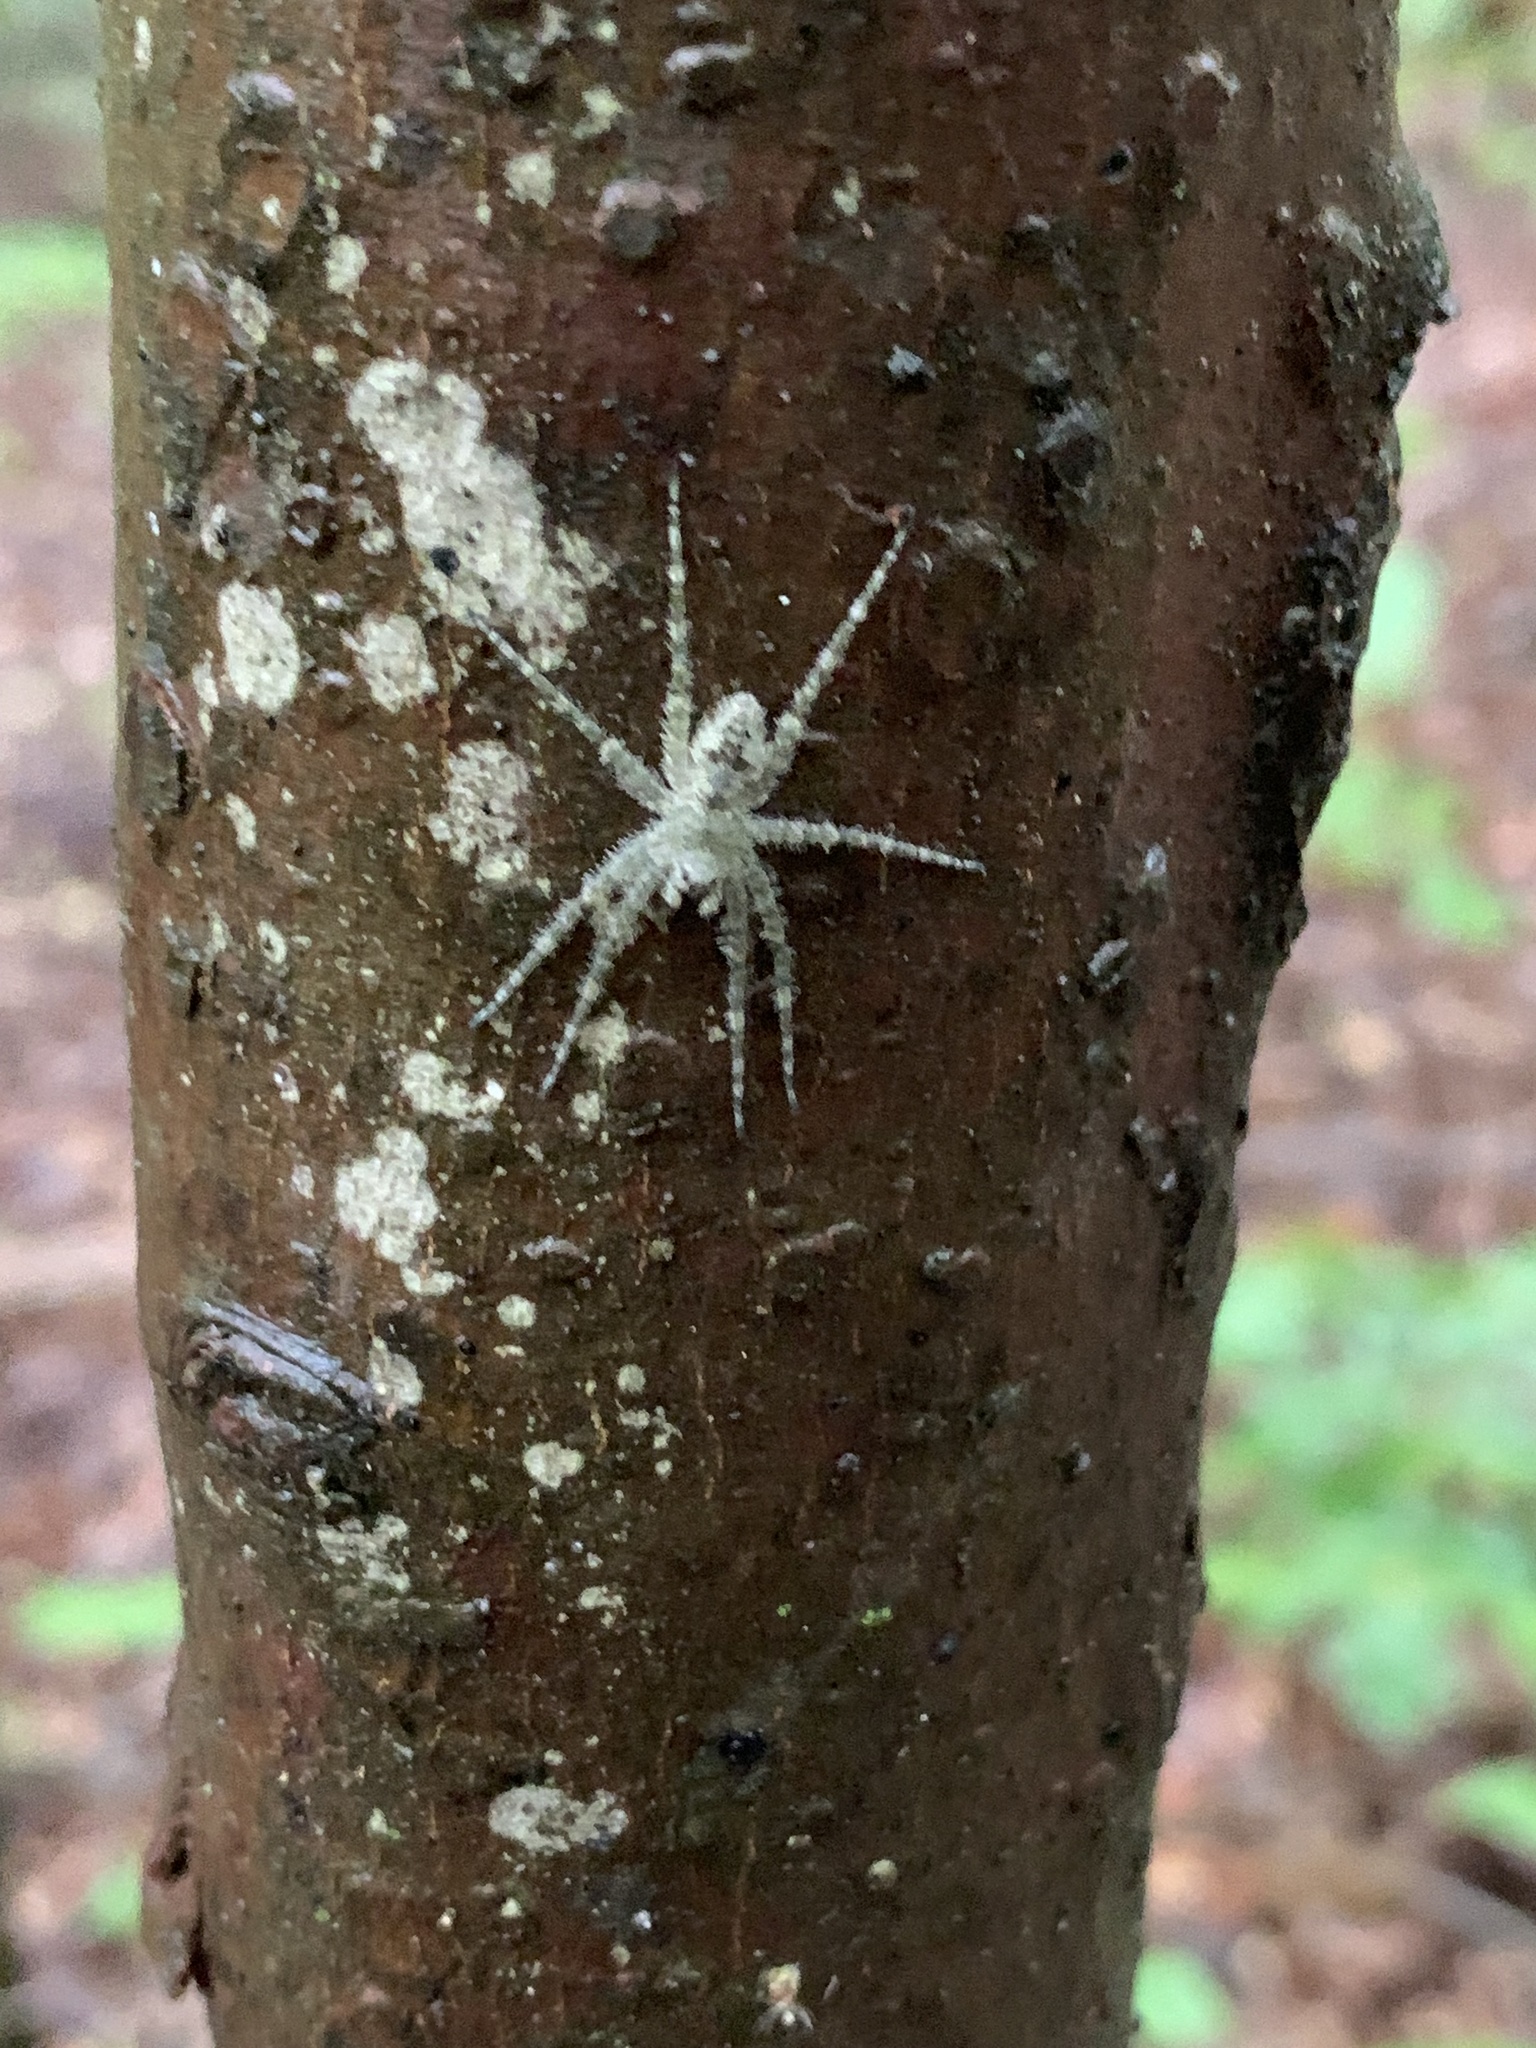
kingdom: Animalia
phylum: Arthropoda
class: Arachnida
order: Araneae
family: Pisauridae
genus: Dolomedes
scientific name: Dolomedes albineus
